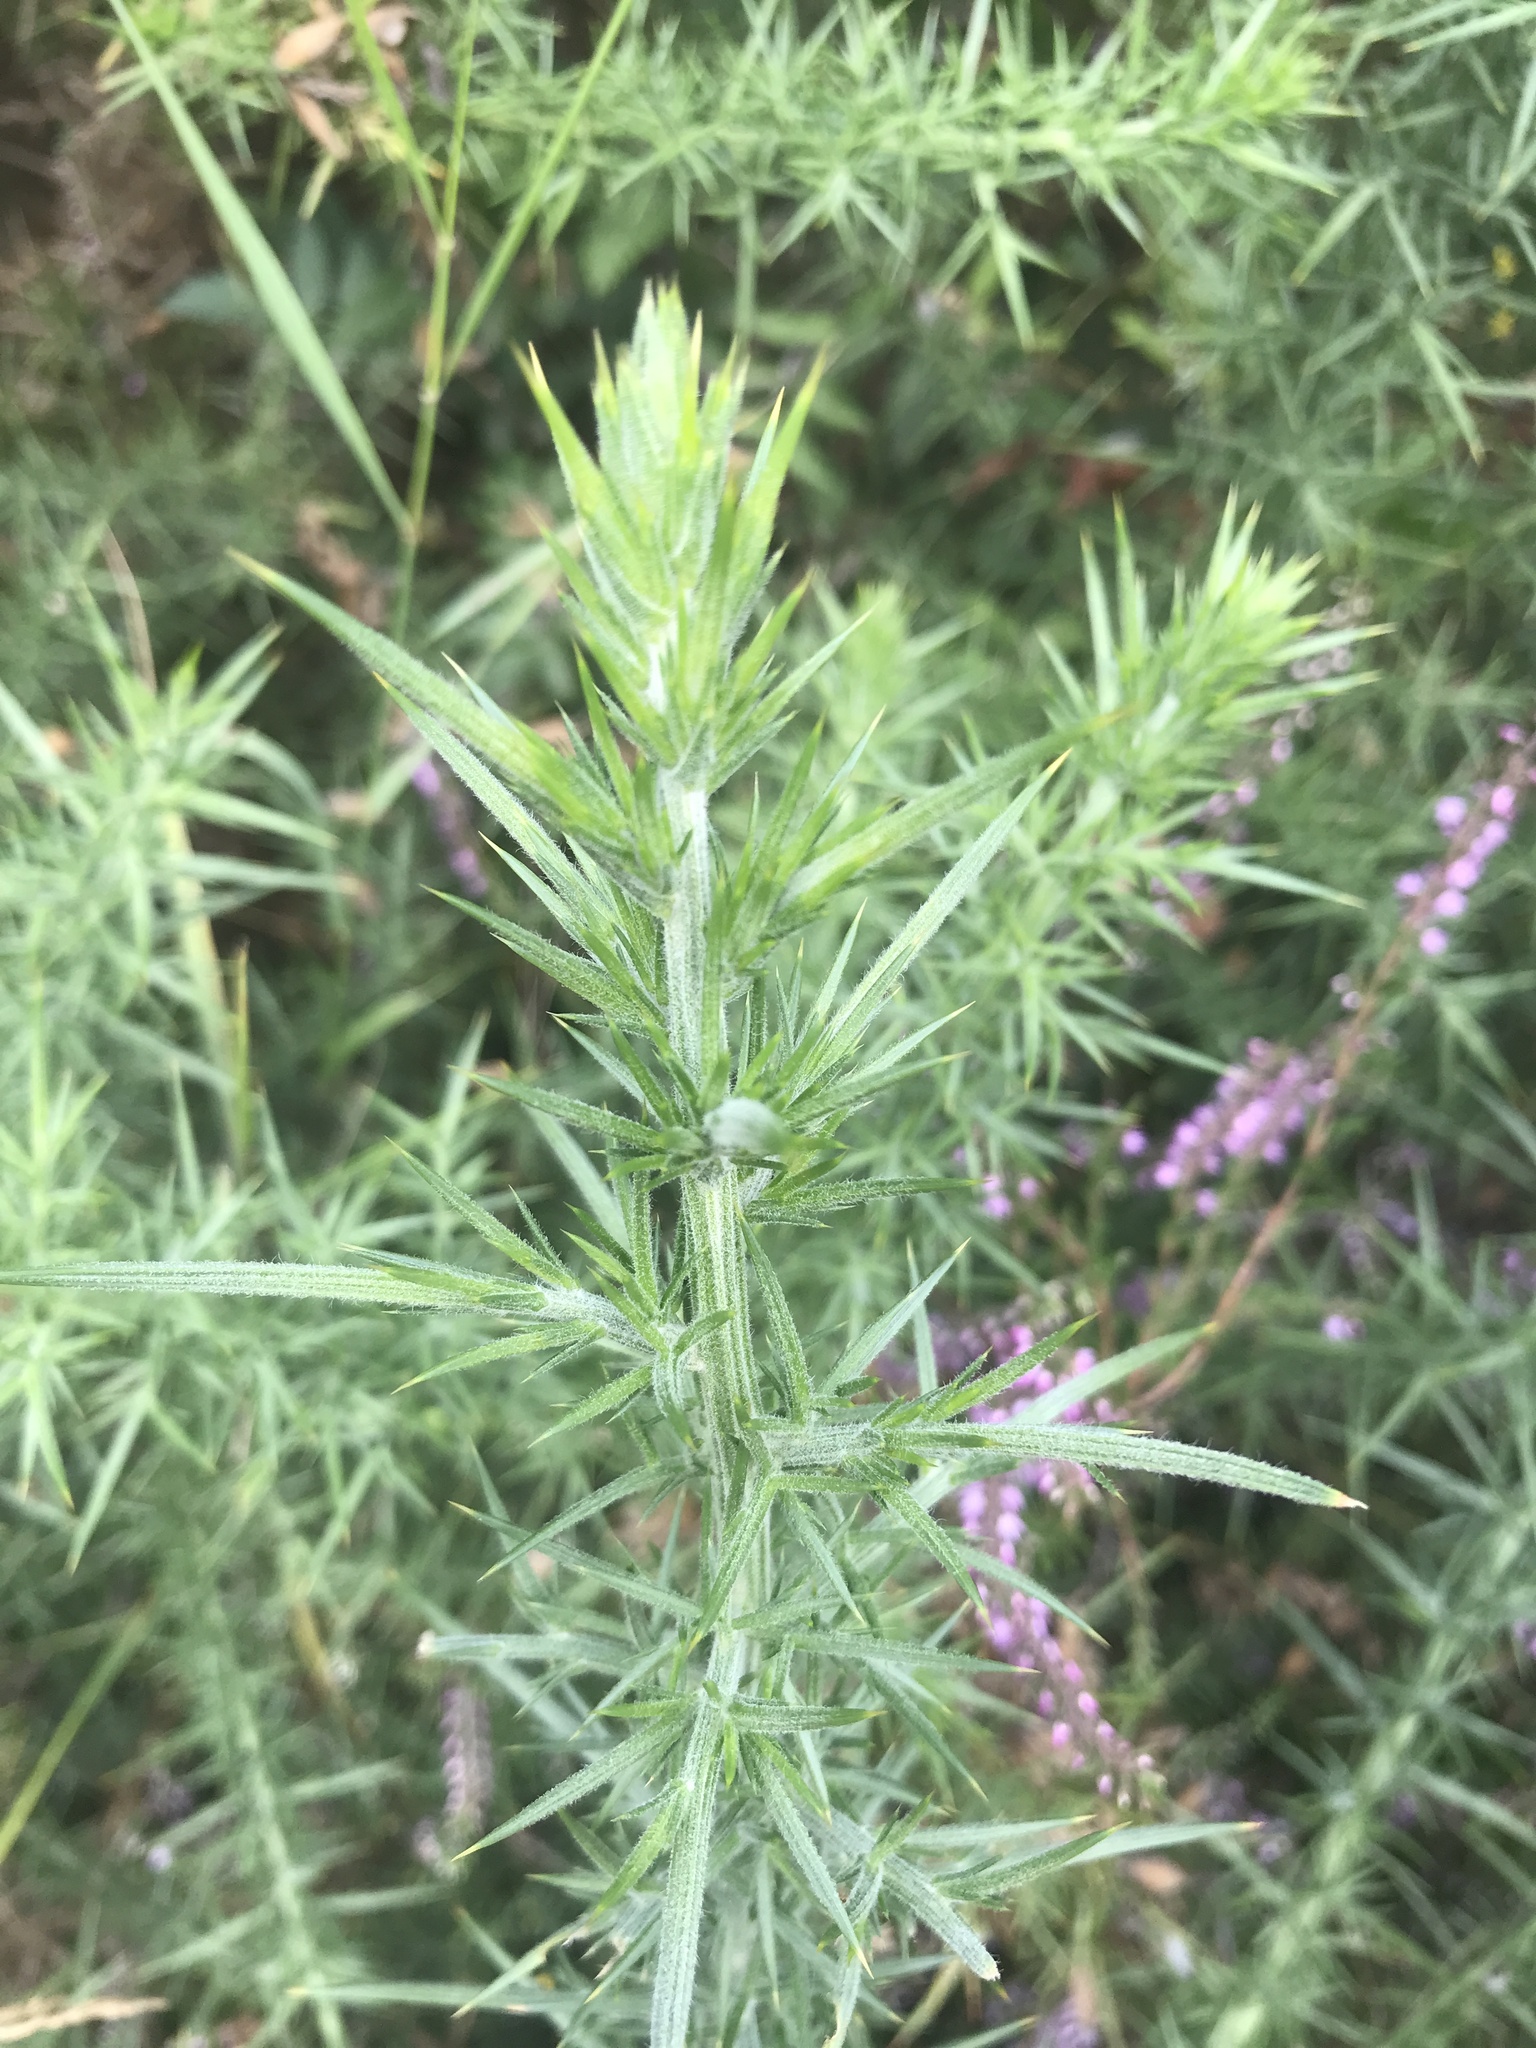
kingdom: Plantae
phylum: Tracheophyta
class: Magnoliopsida
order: Fabales
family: Fabaceae
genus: Ulex
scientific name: Ulex europaeus
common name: Common gorse
